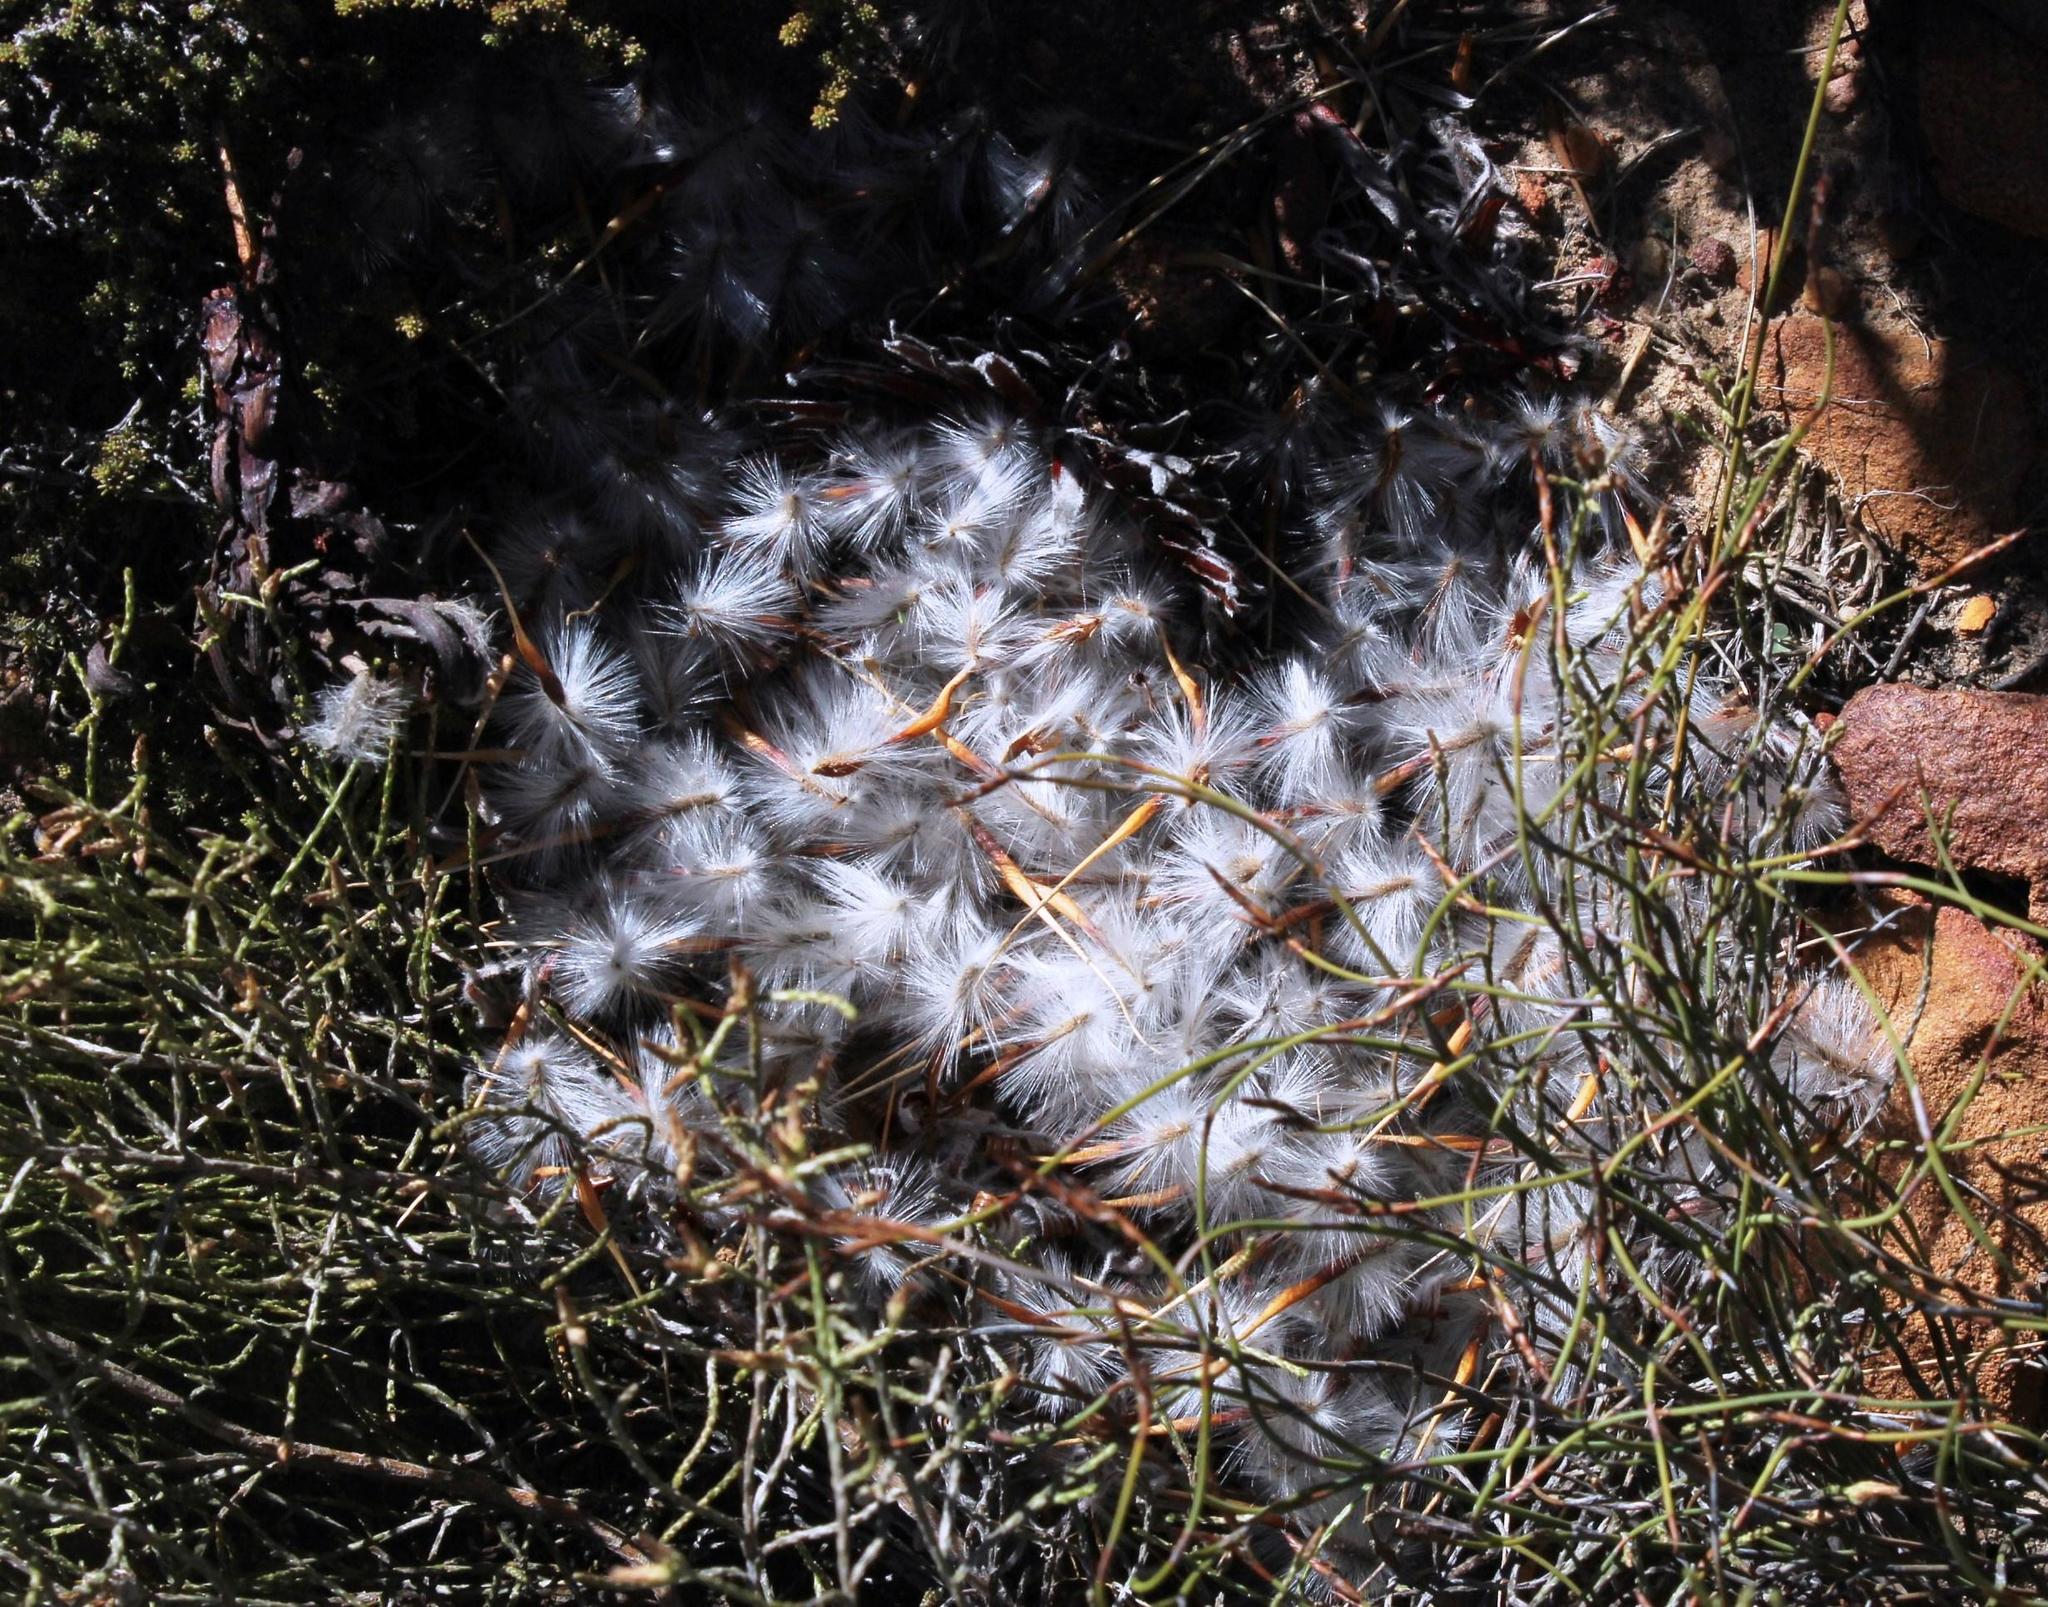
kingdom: Plantae
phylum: Tracheophyta
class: Magnoliopsida
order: Proteales
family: Proteaceae
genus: Protea
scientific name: Protea scolopendriifolia
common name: Harts-tongue-fern sugarbush
